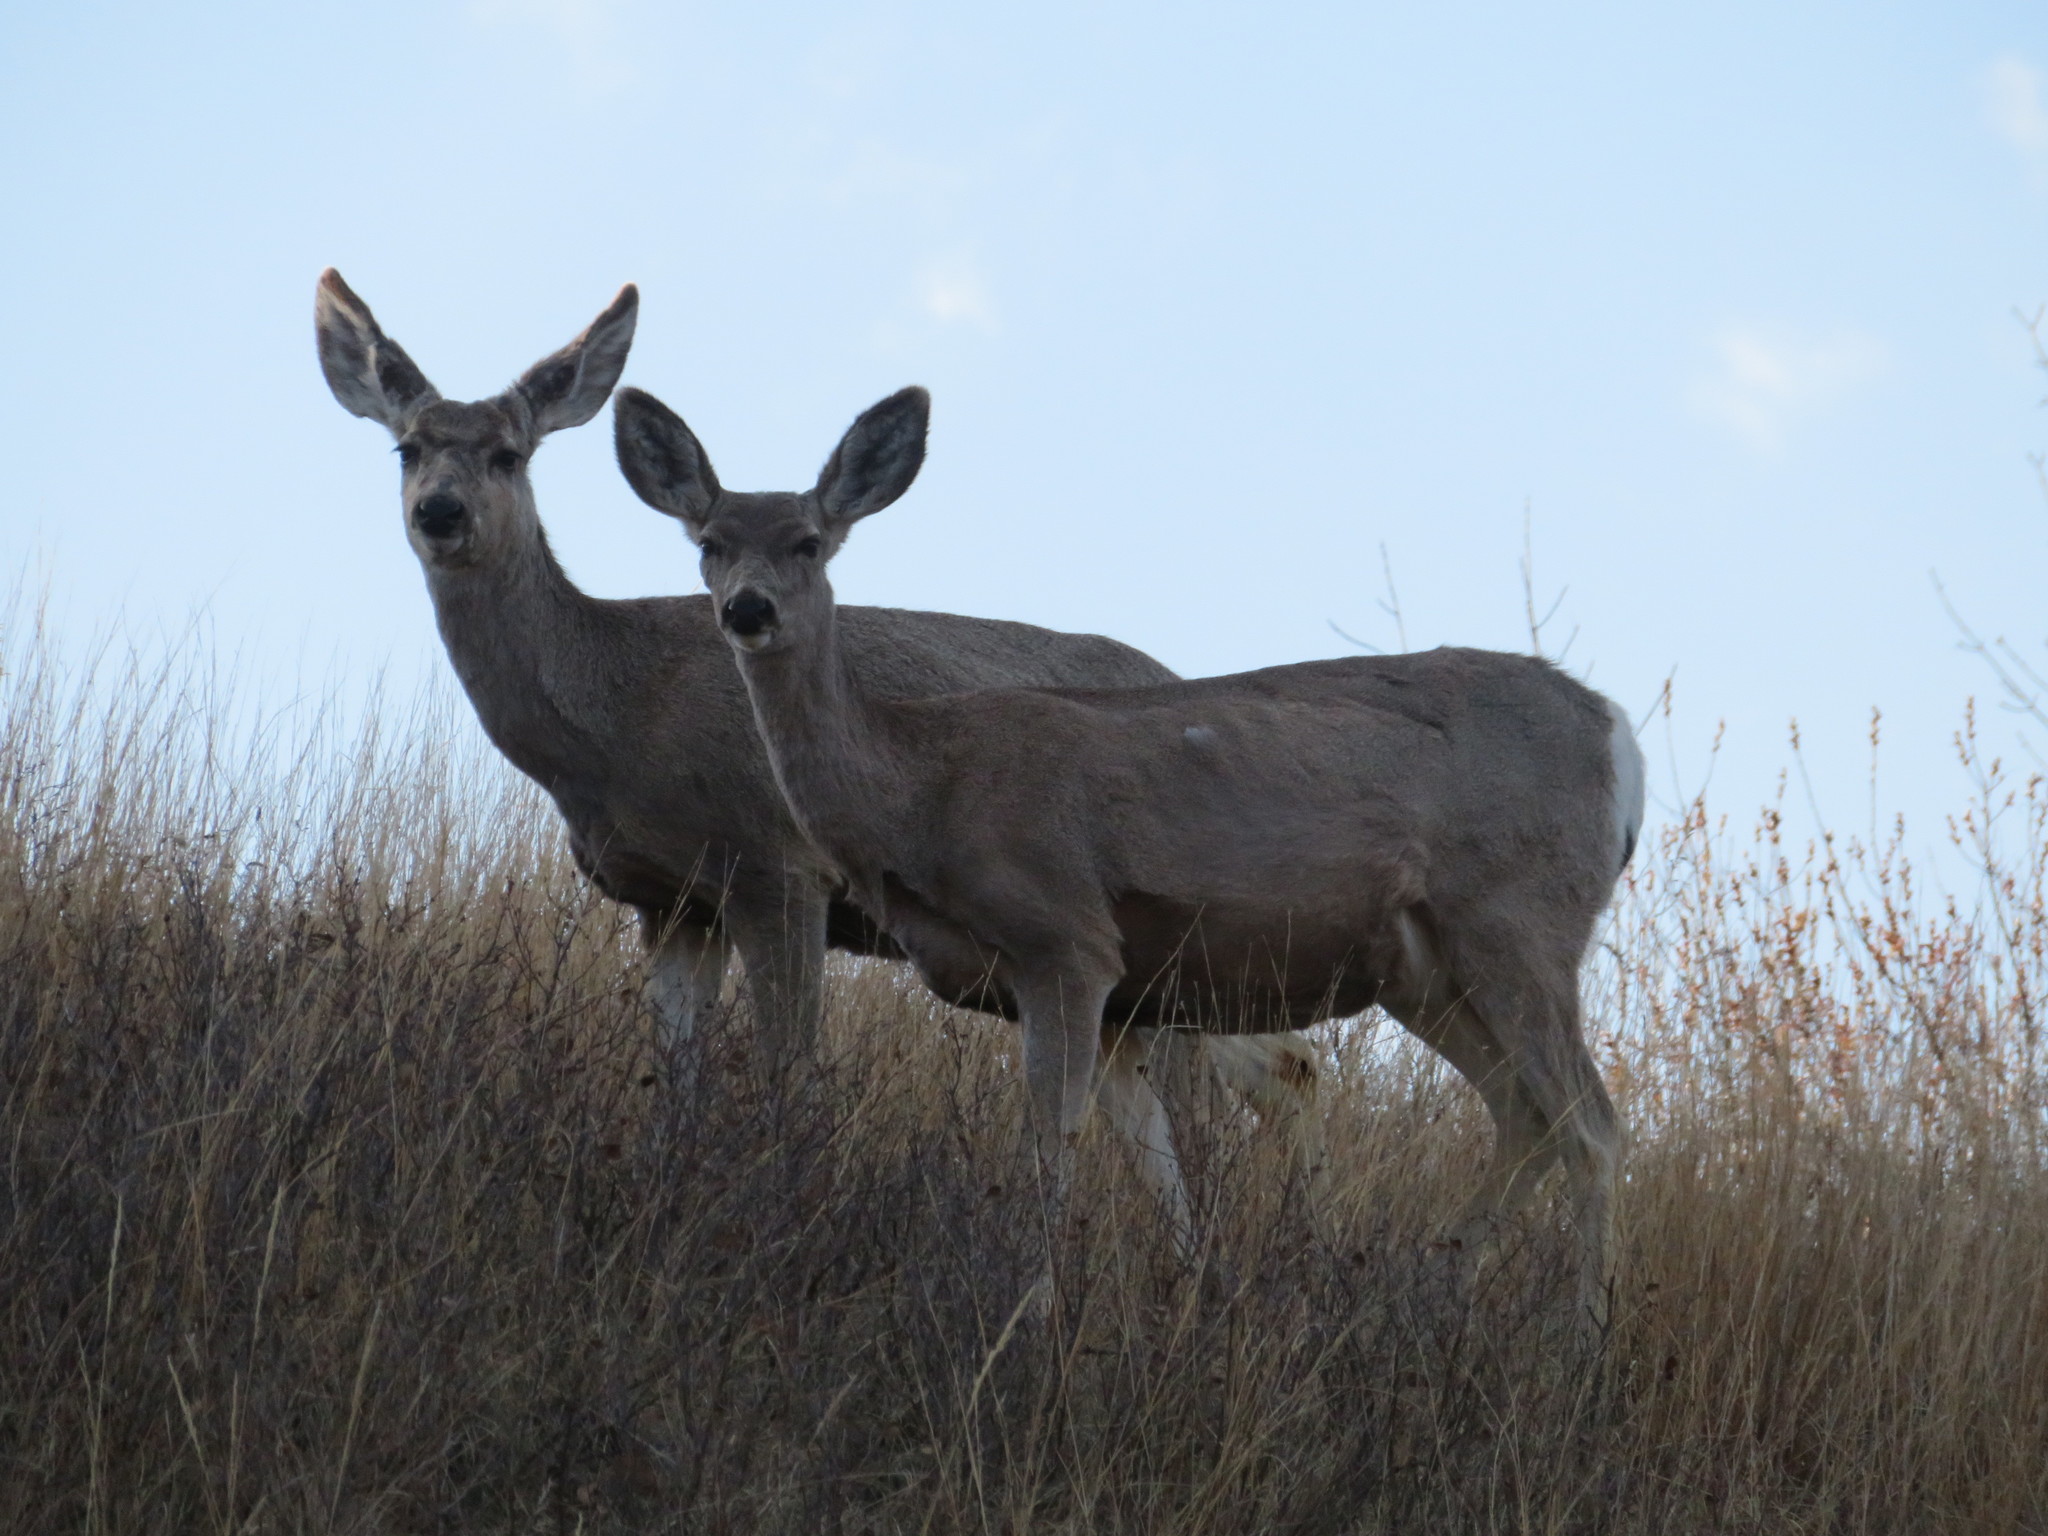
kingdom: Animalia
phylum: Chordata
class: Mammalia
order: Artiodactyla
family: Cervidae
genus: Odocoileus
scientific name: Odocoileus hemionus
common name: Mule deer
